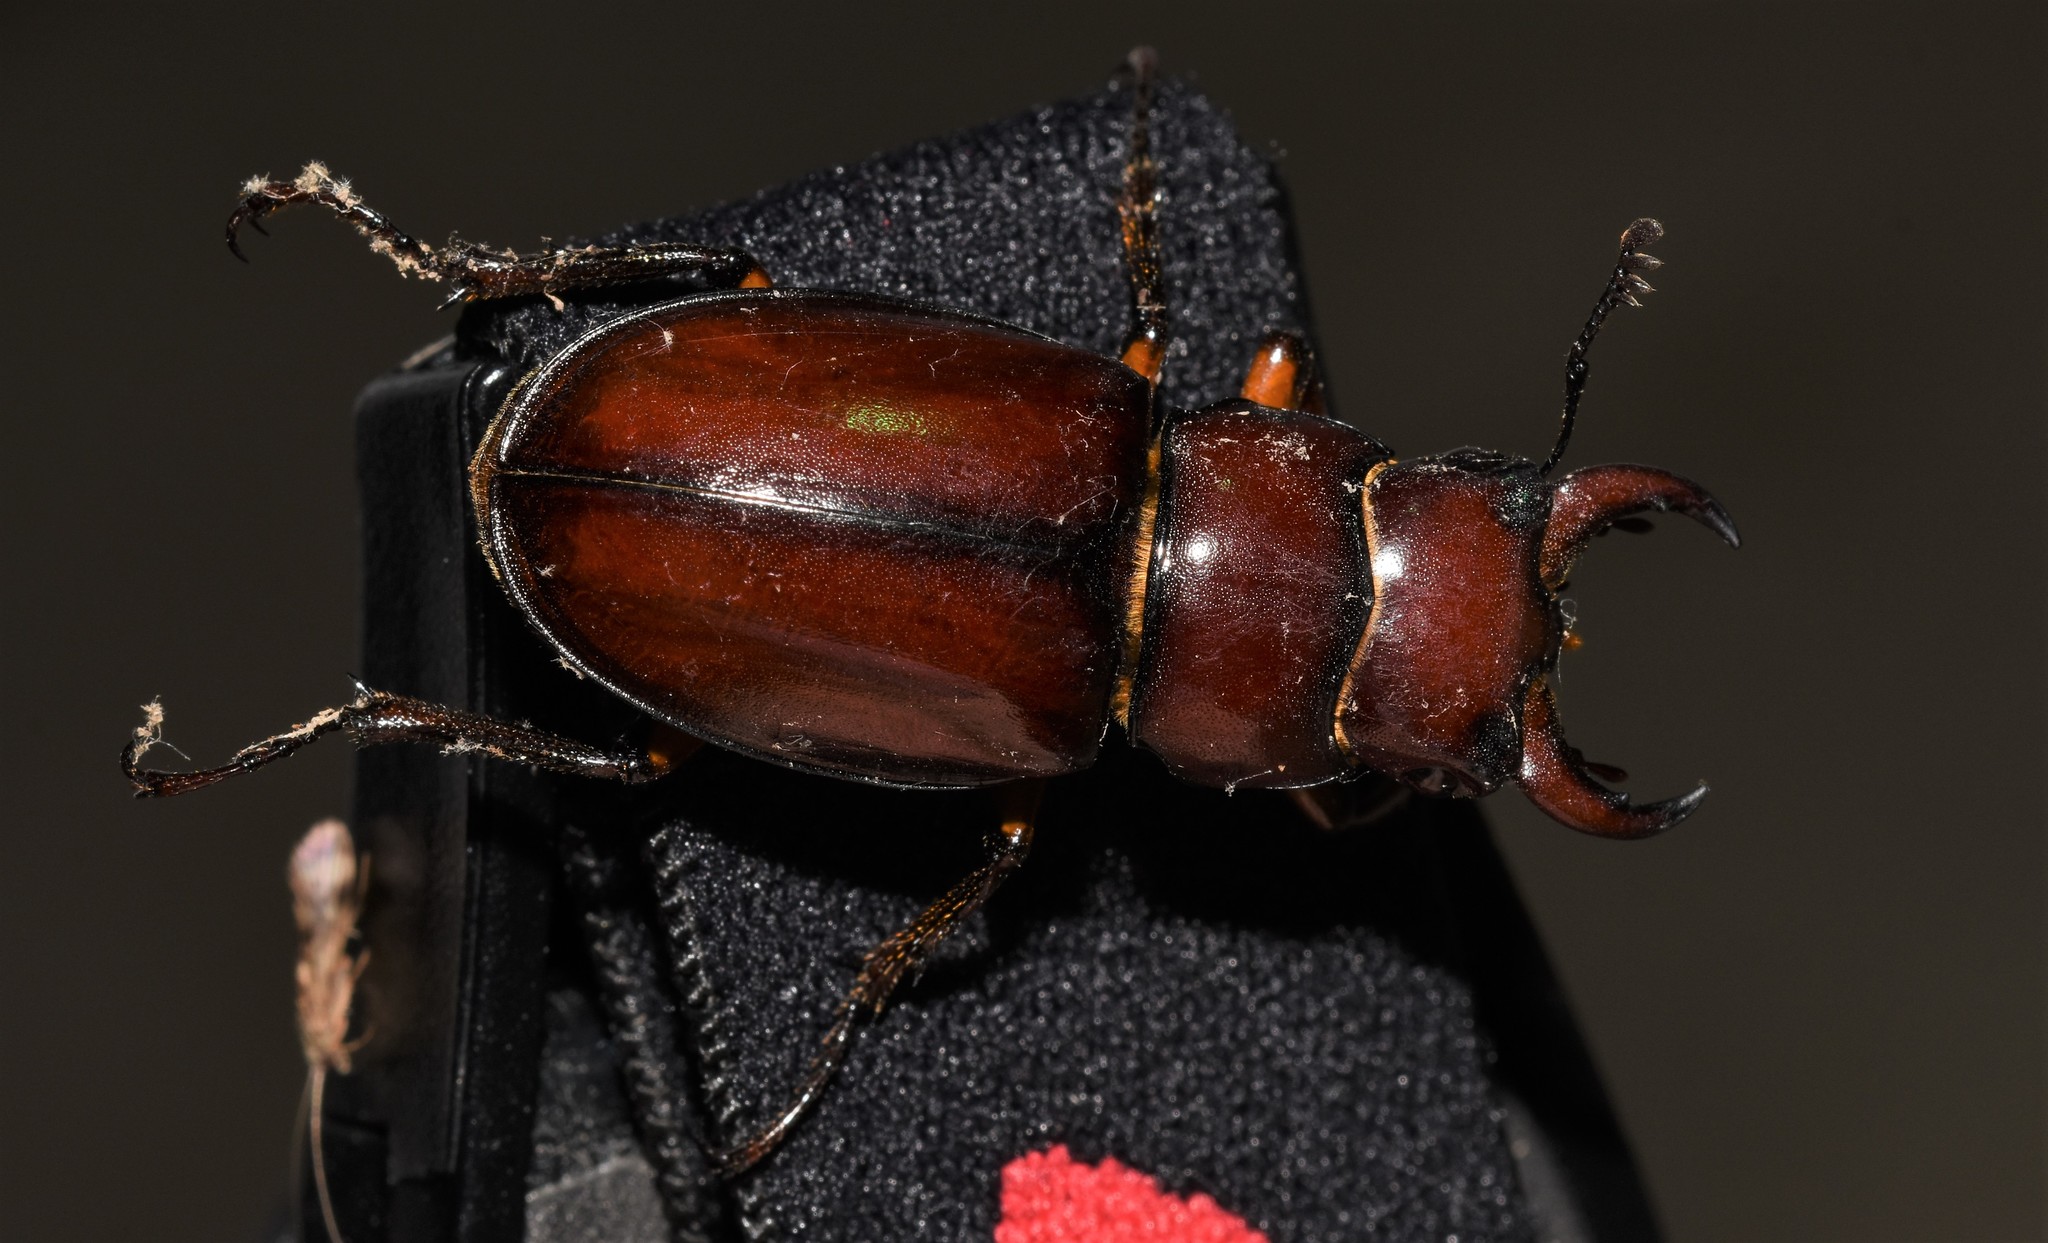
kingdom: Animalia
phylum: Arthropoda
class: Insecta
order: Coleoptera
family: Lucanidae
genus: Lucanus
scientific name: Lucanus capreolus
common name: Stag beetle
